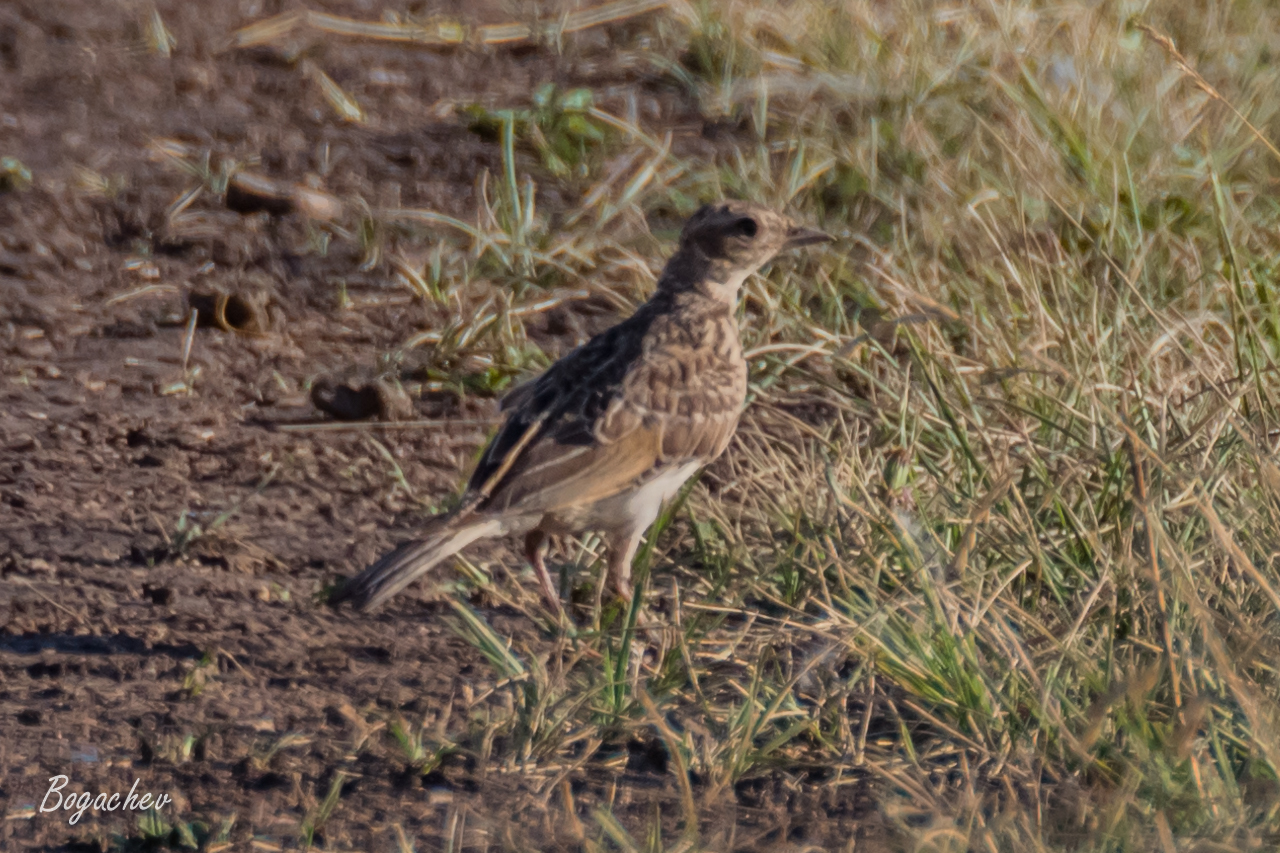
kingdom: Animalia
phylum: Chordata
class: Aves
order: Passeriformes
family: Alaudidae
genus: Alauda
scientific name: Alauda arvensis
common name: Eurasian skylark
